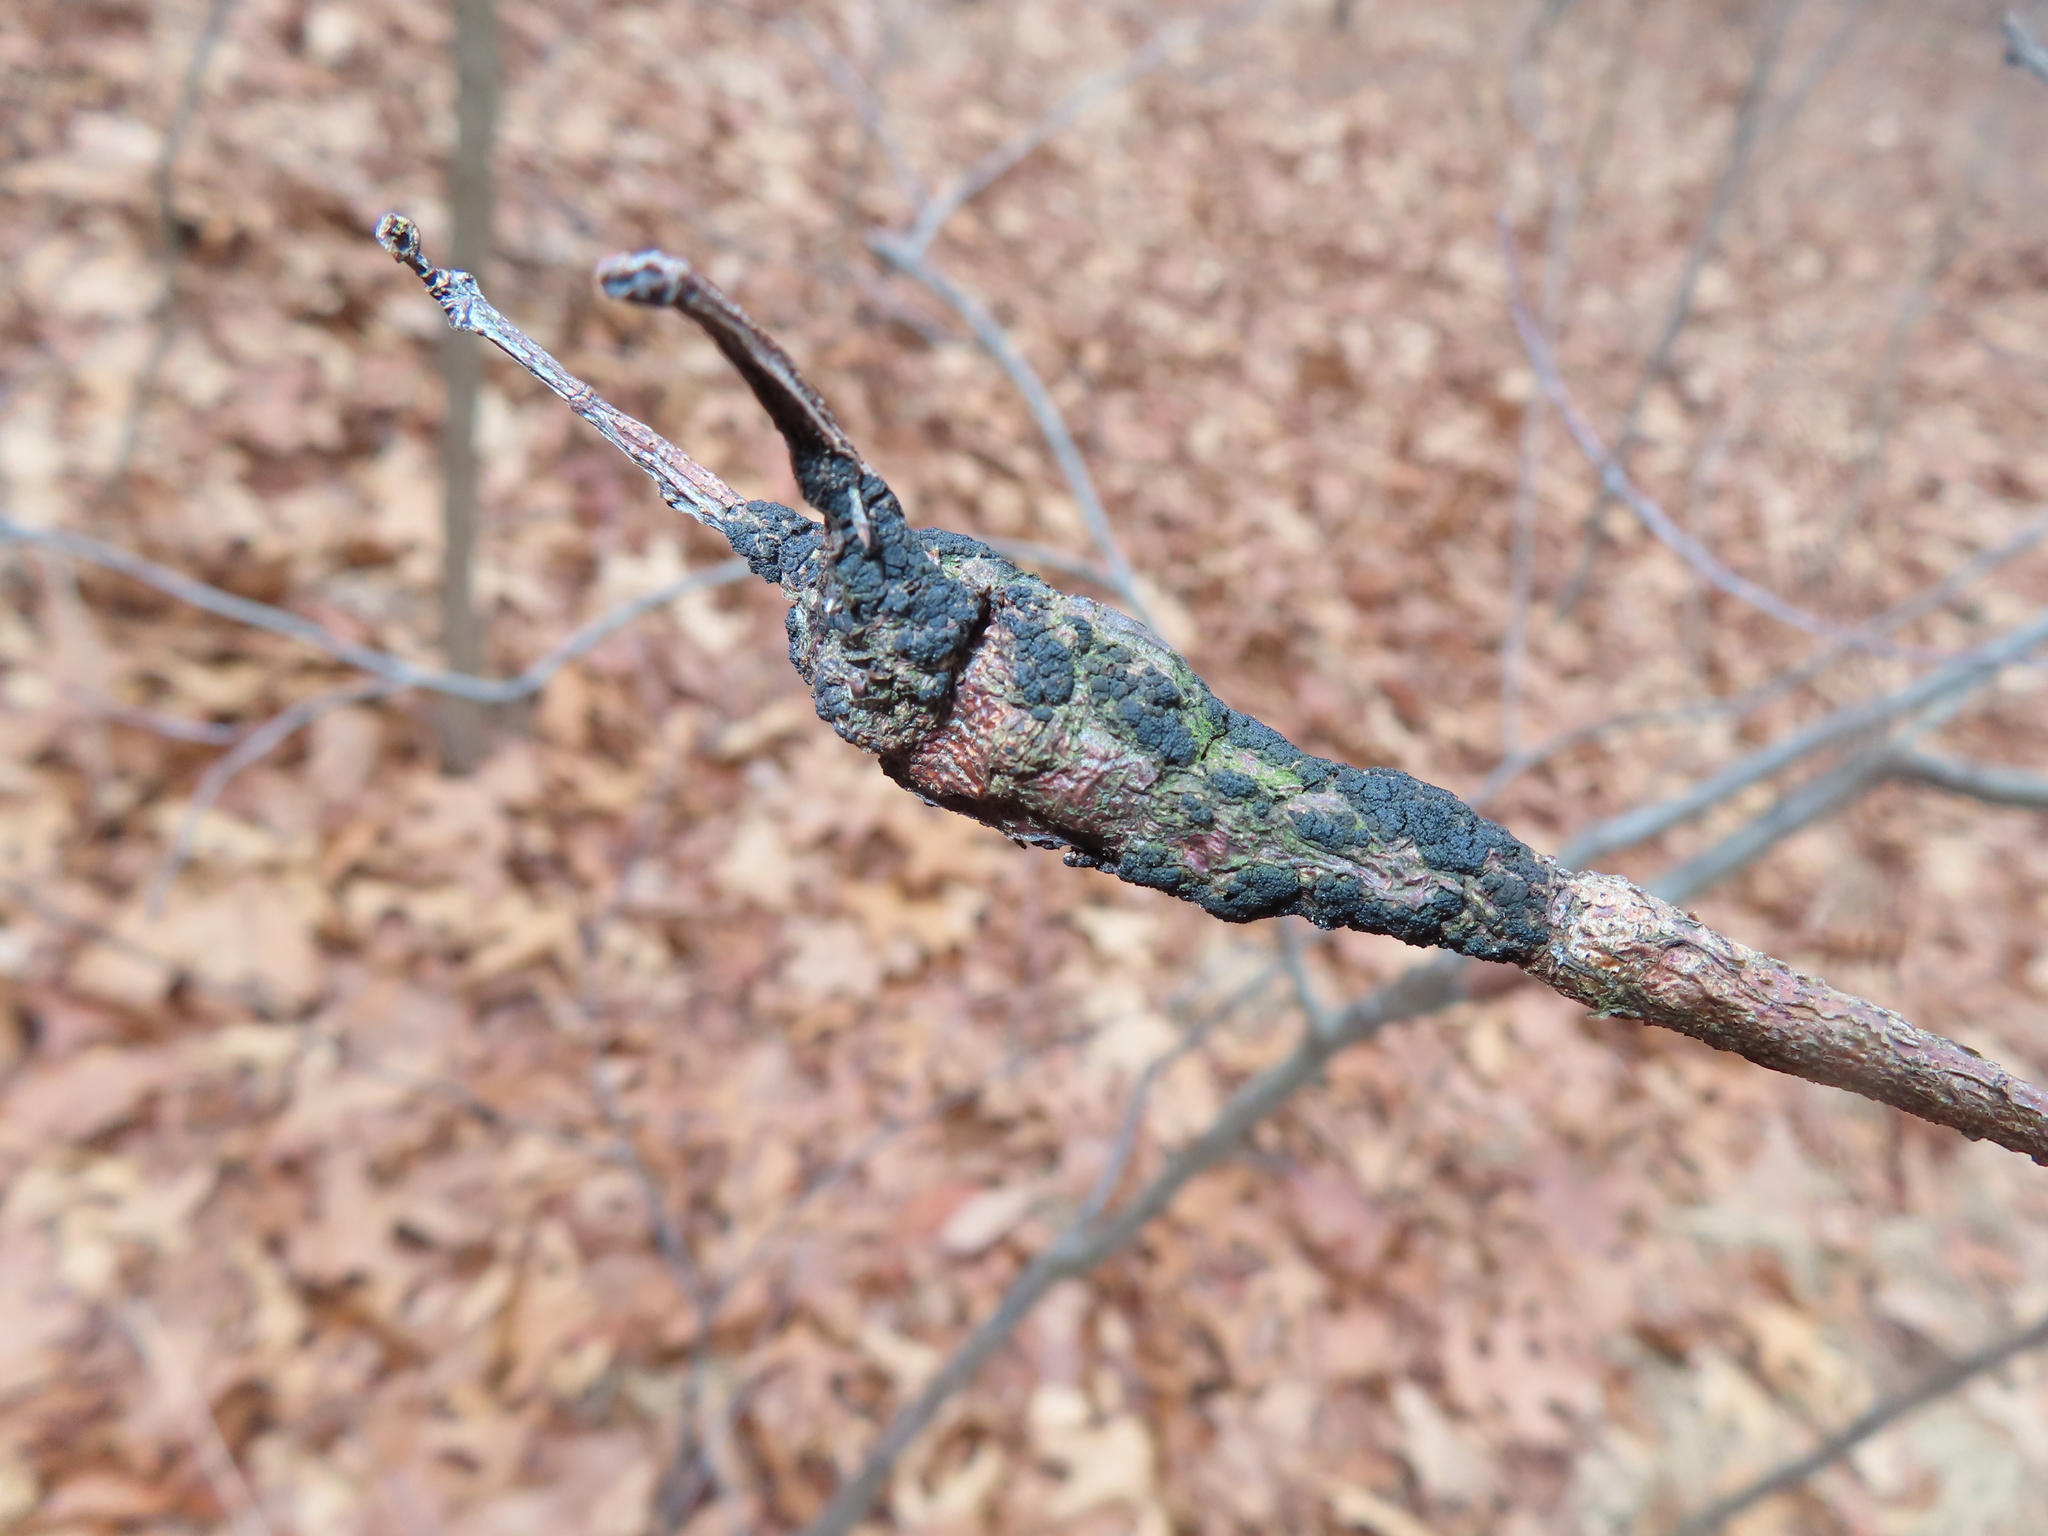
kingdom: Fungi
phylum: Ascomycota
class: Dothideomycetes
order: Venturiales
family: Venturiaceae
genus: Apiosporina
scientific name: Apiosporina morbosa
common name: Black knot
